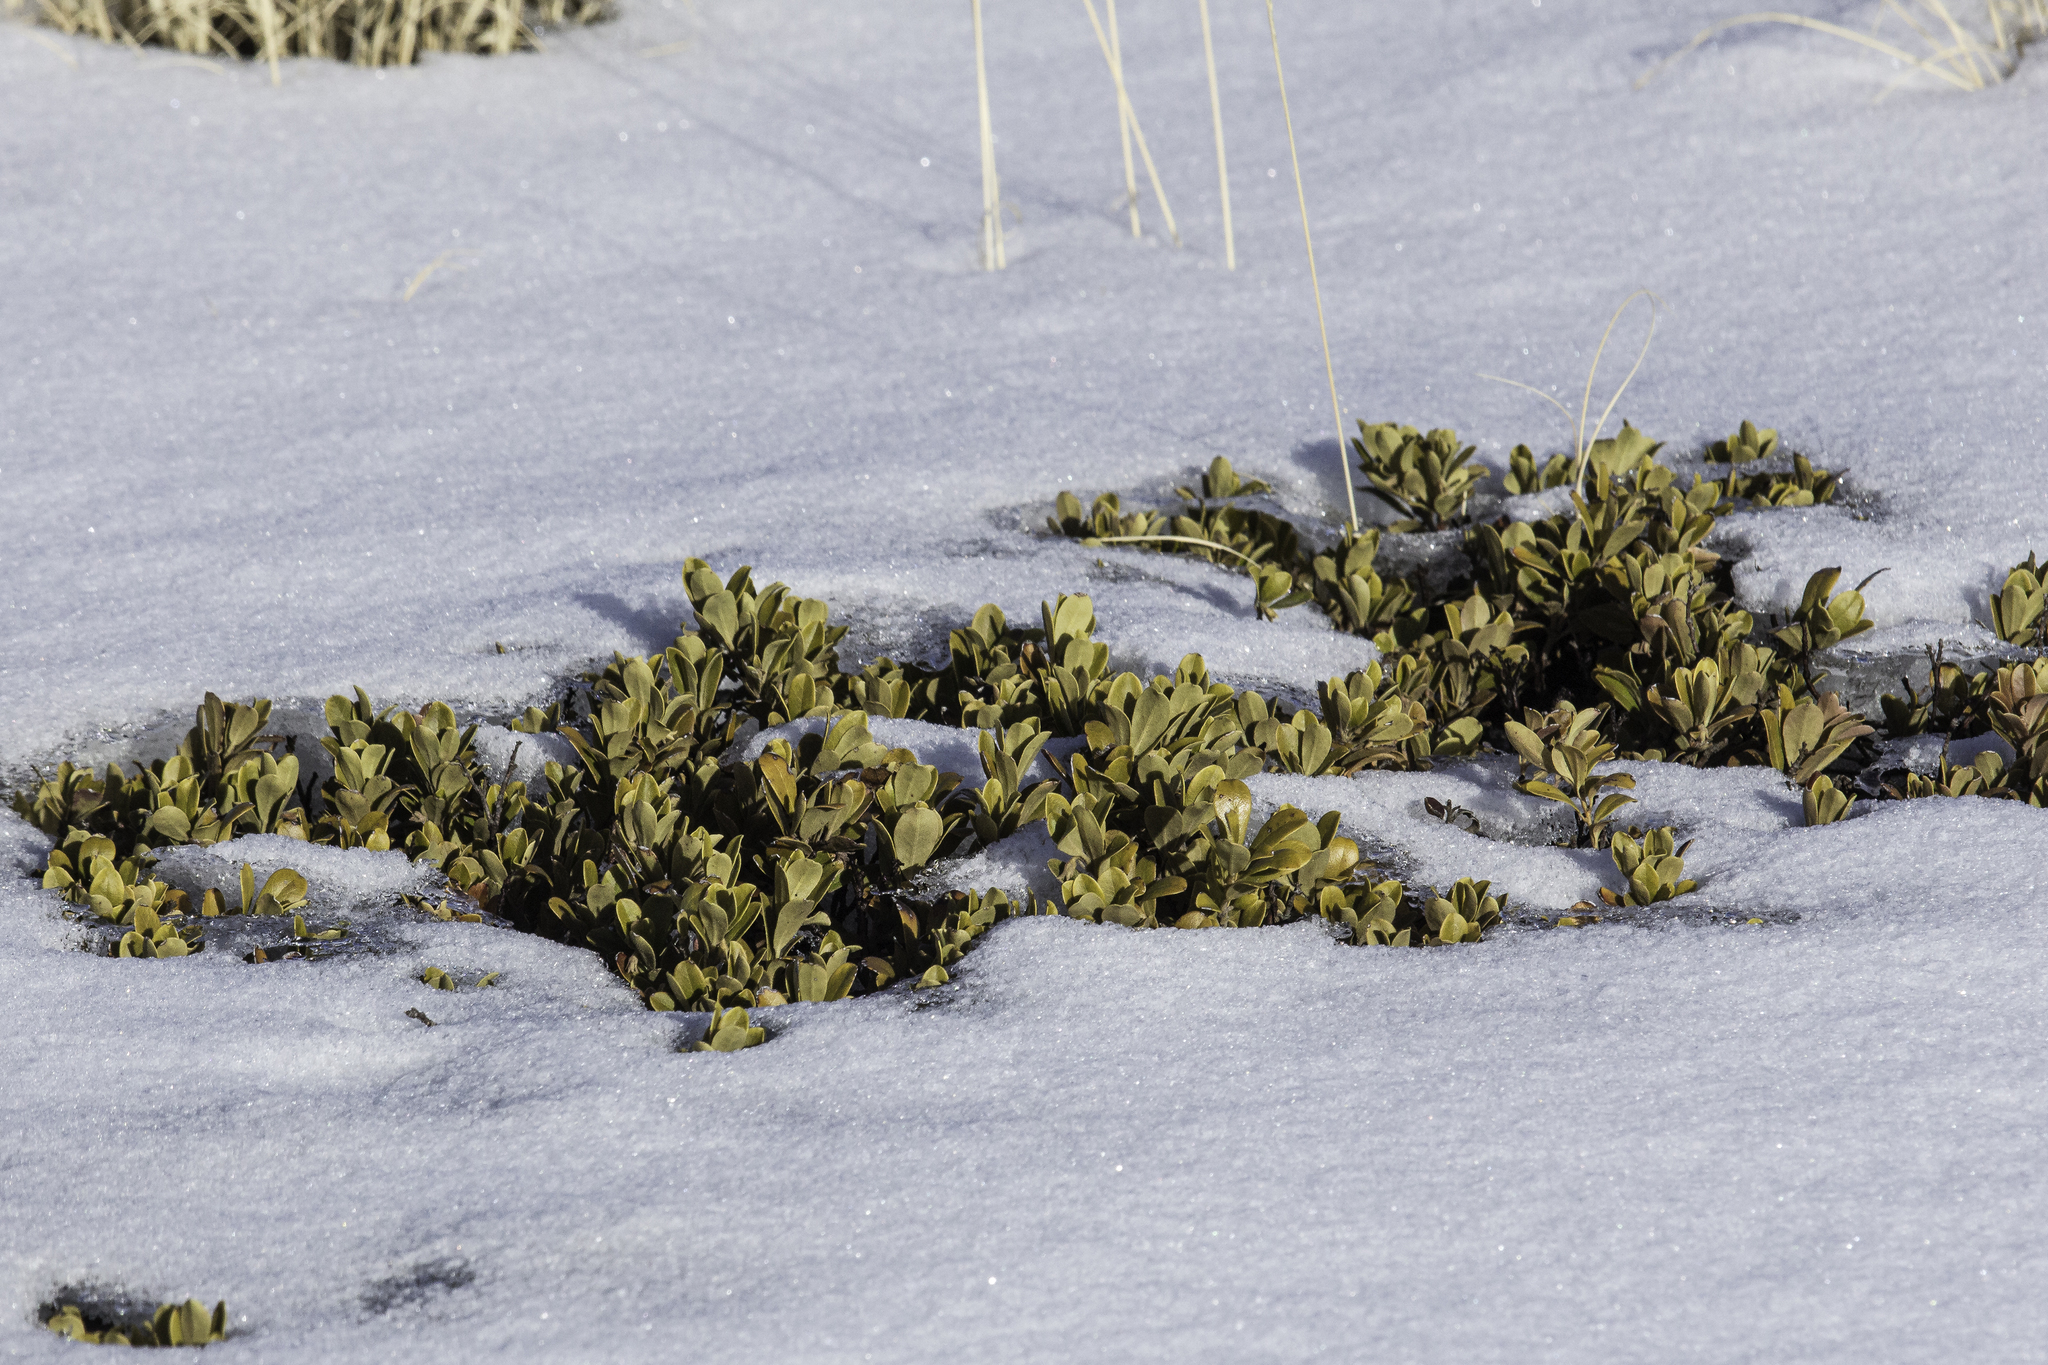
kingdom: Plantae
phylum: Tracheophyta
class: Magnoliopsida
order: Ericales
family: Ericaceae
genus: Arctostaphylos
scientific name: Arctostaphylos uva-ursi
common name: Bearberry
